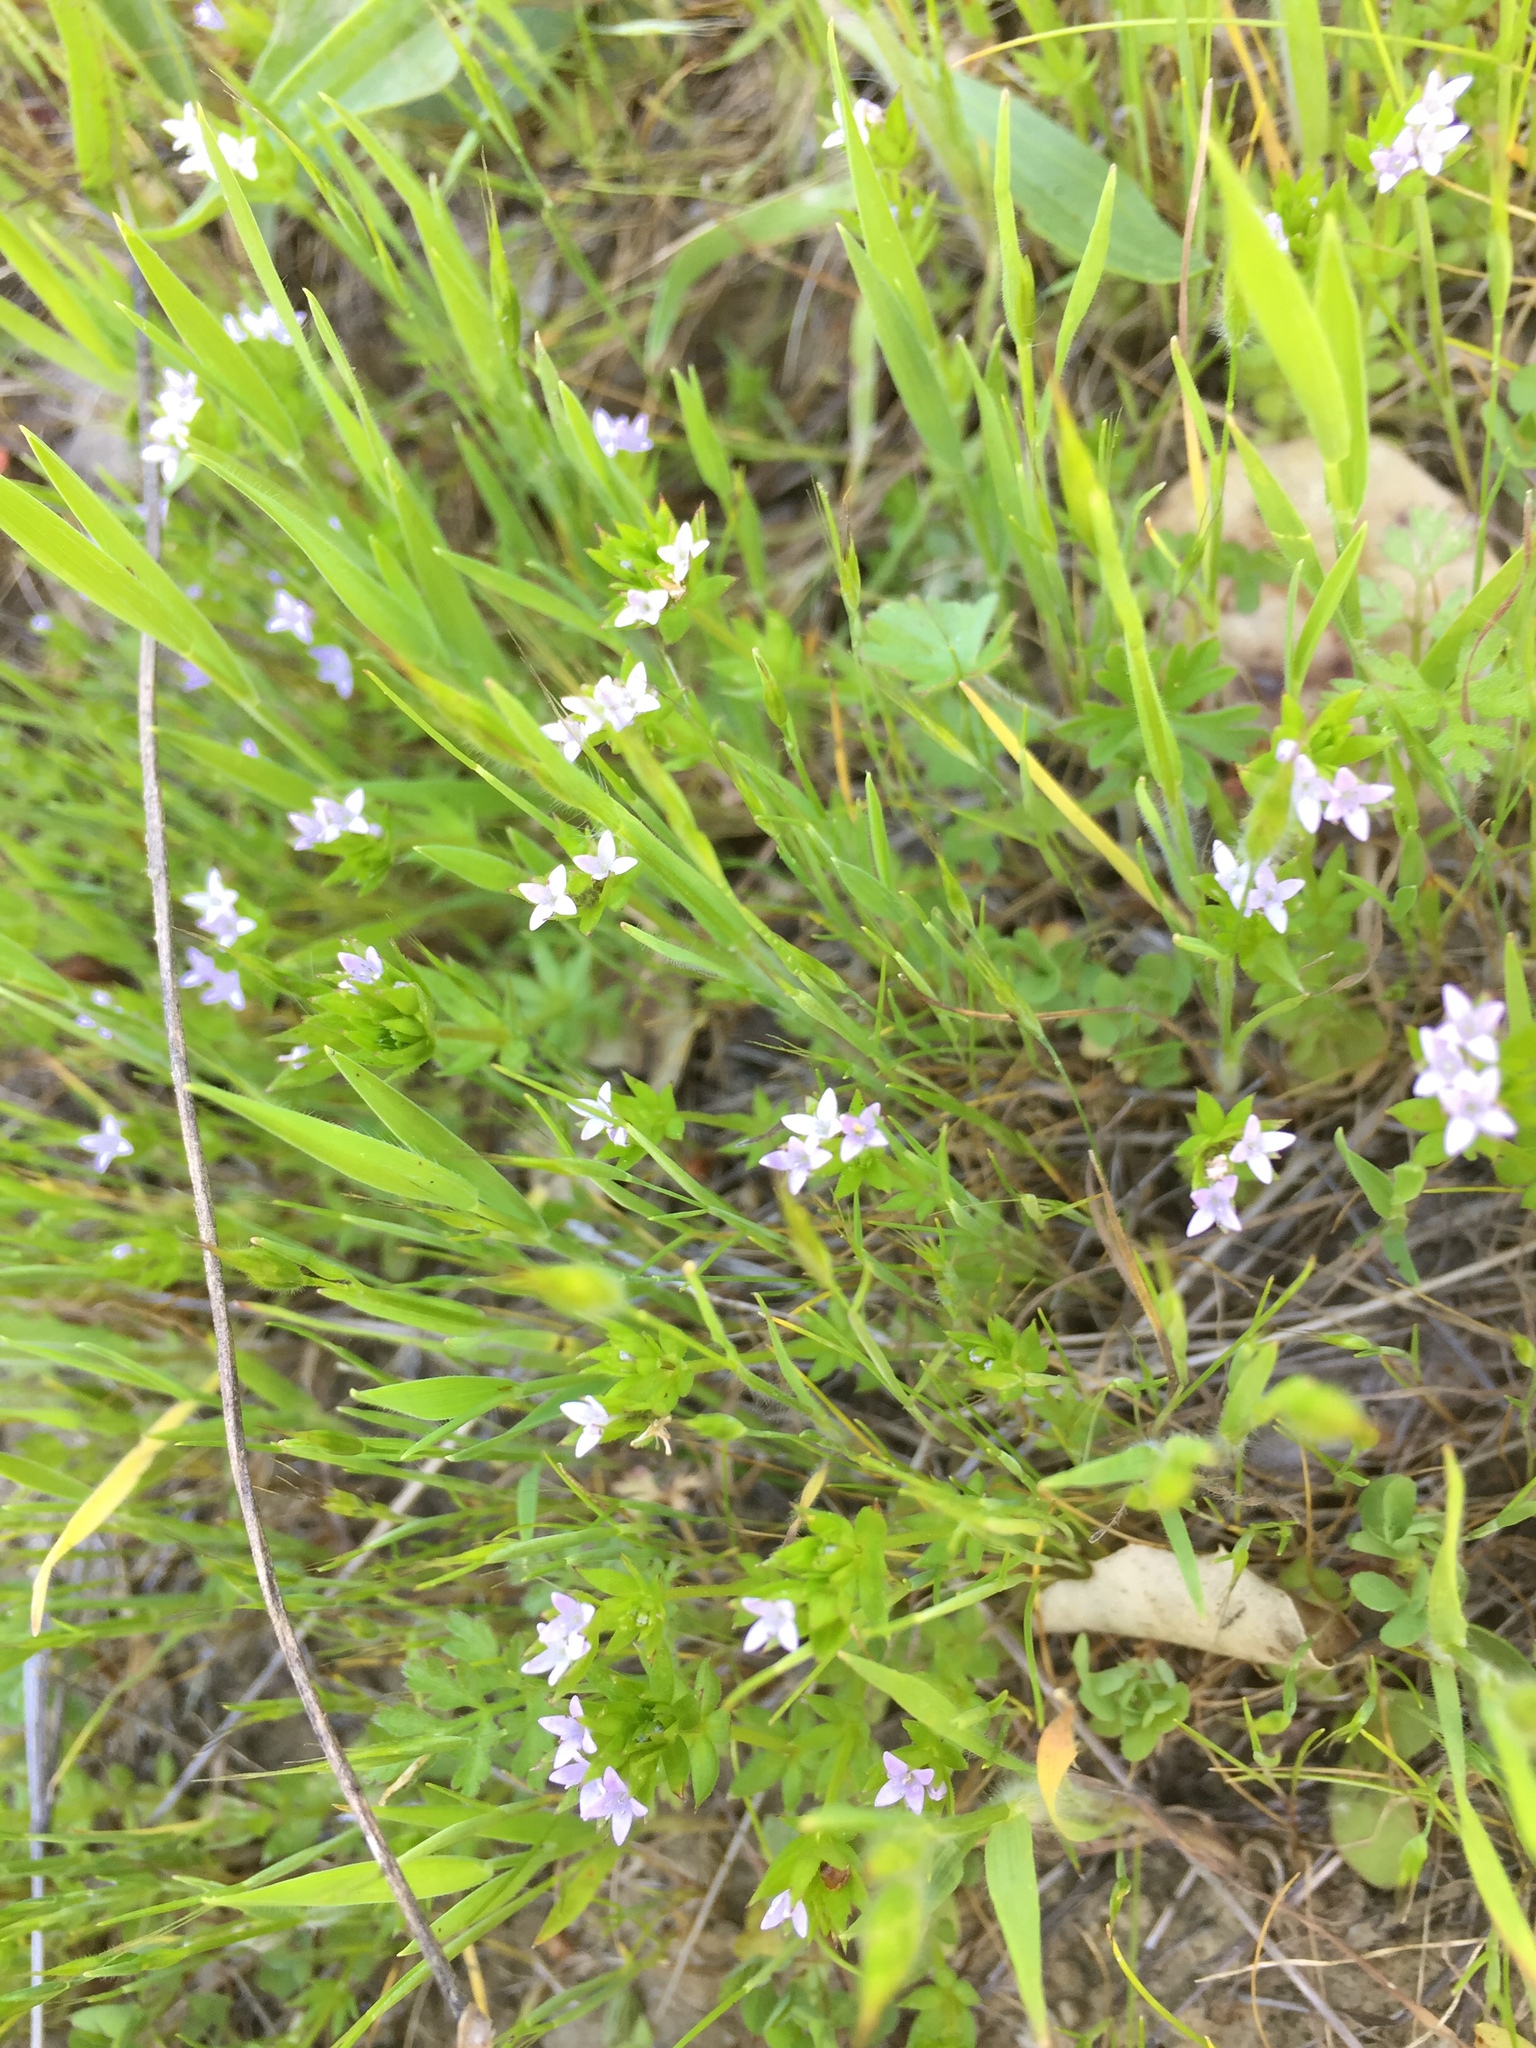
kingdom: Plantae
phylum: Tracheophyta
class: Magnoliopsida
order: Gentianales
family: Rubiaceae
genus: Sherardia
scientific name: Sherardia arvensis
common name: Field madder
